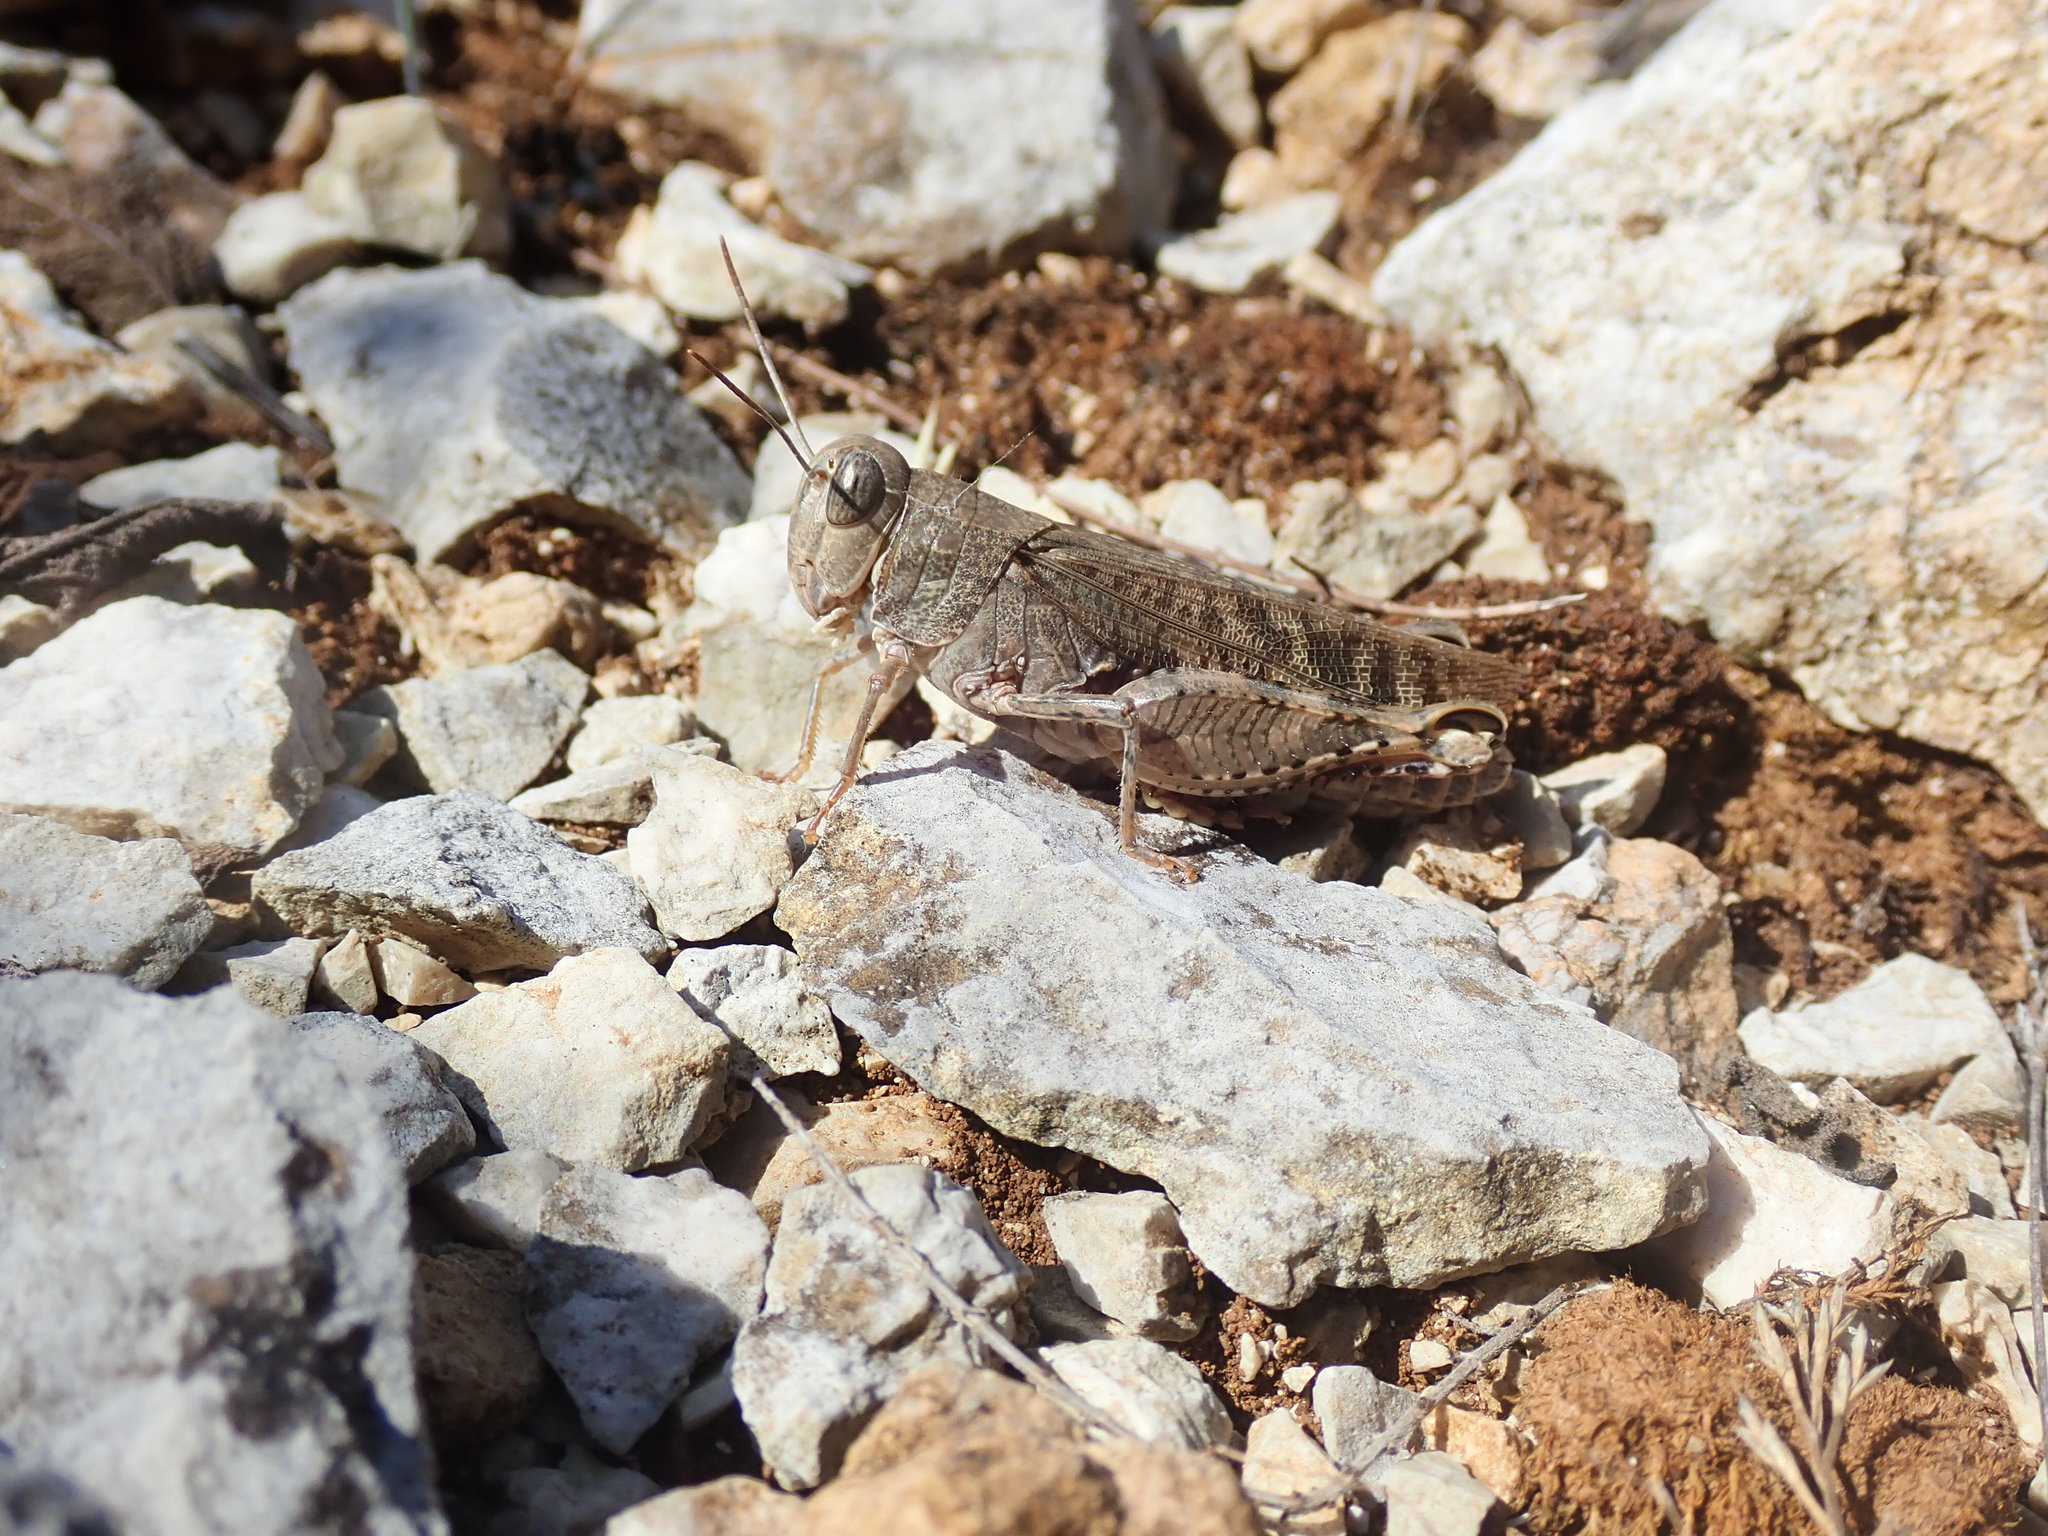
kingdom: Animalia
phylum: Arthropoda
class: Insecta
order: Orthoptera
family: Acrididae
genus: Calliptamus
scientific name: Calliptamus italicus
